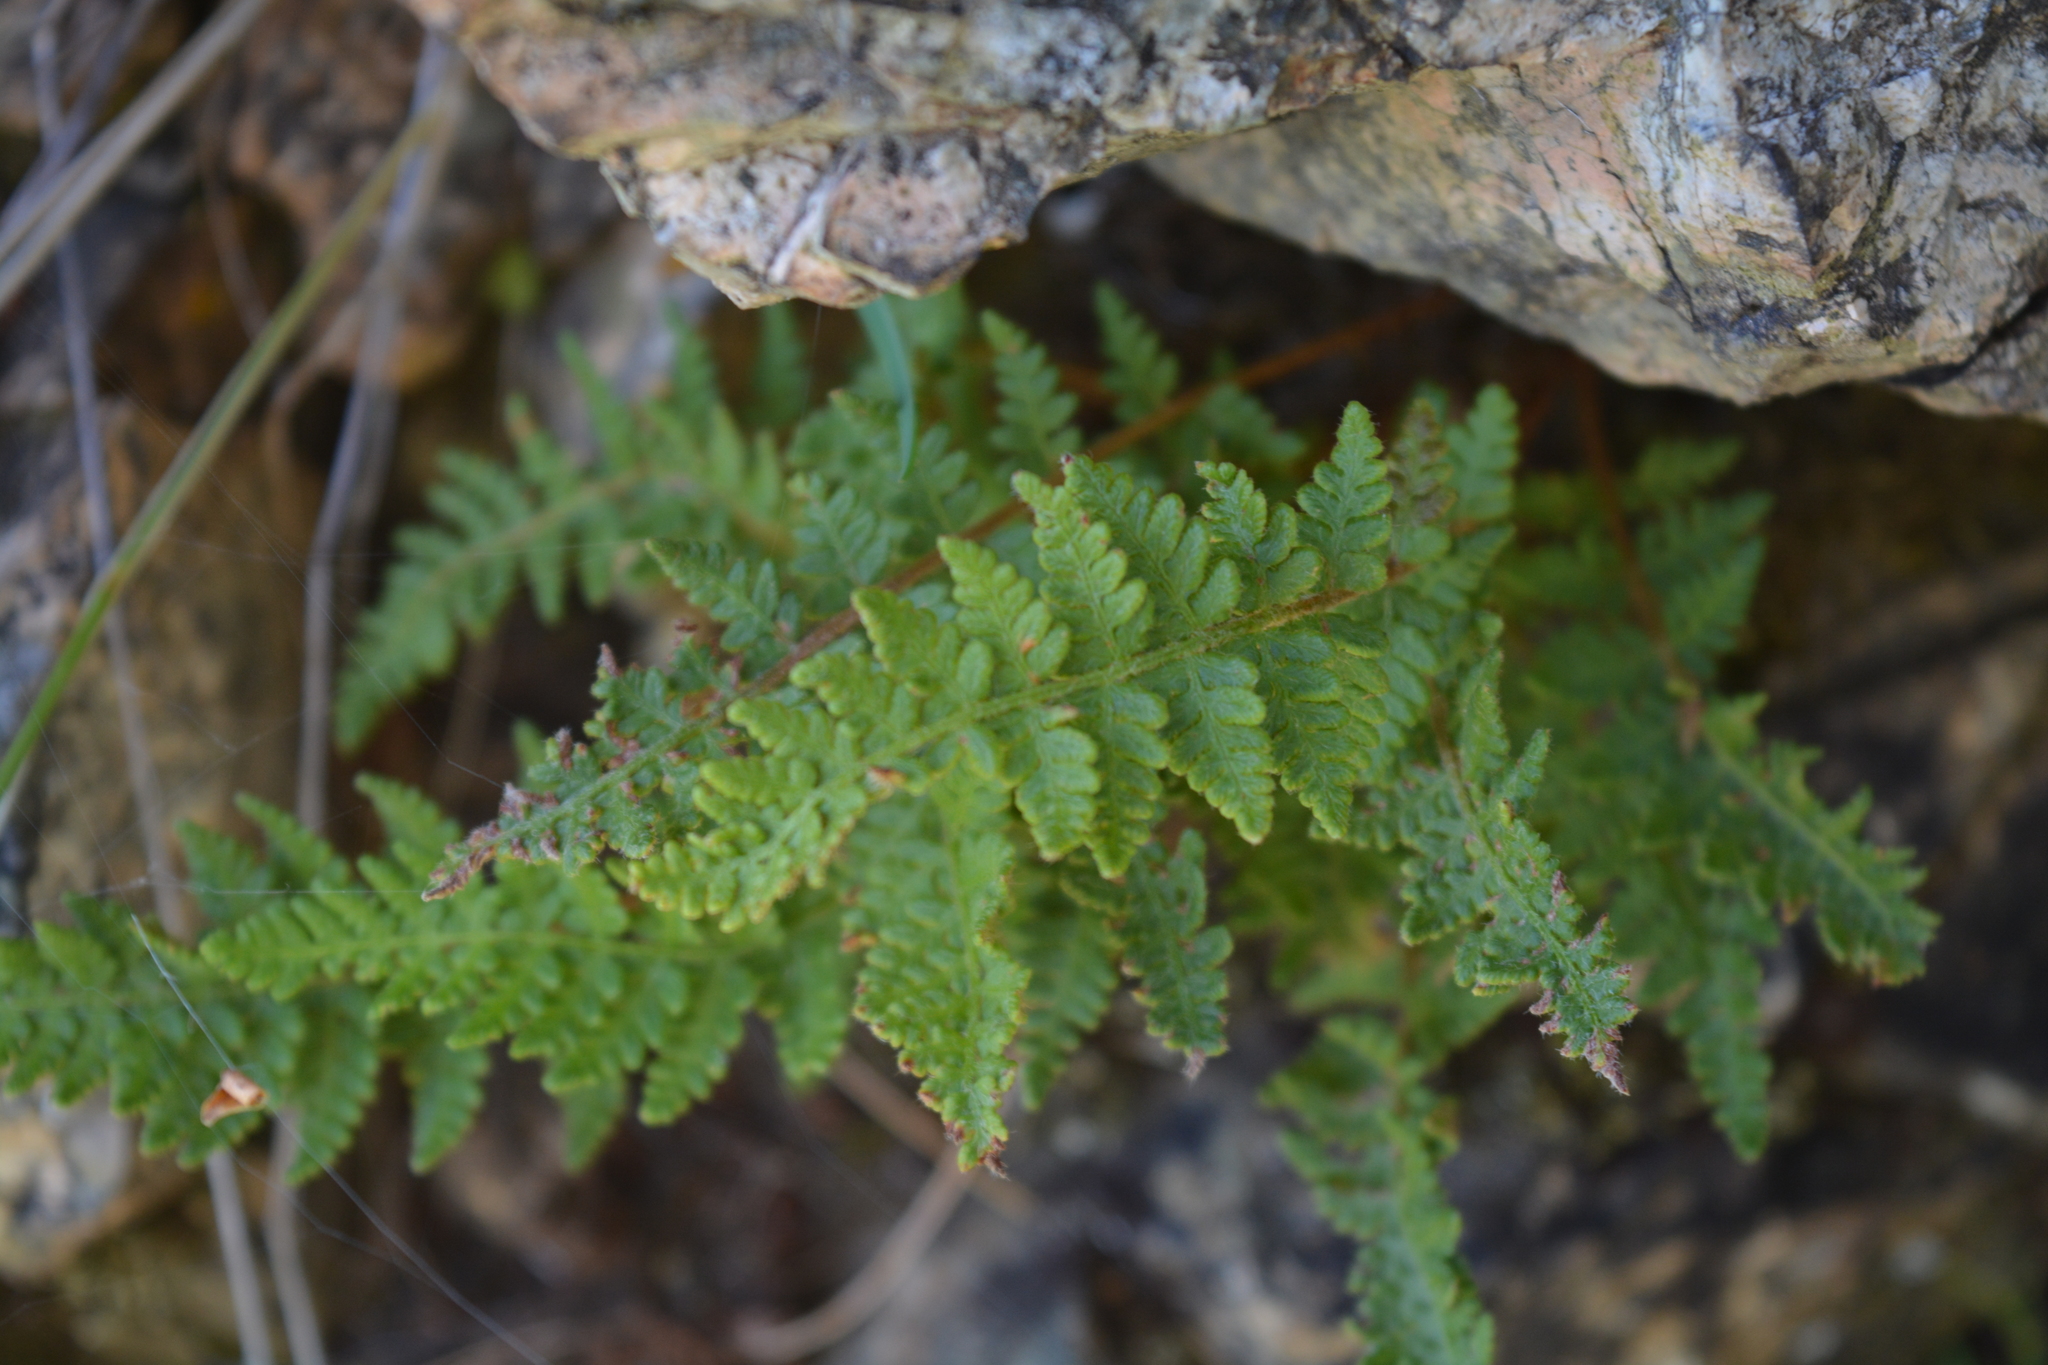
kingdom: Plantae
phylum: Tracheophyta
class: Polypodiopsida
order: Polypodiales
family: Woodsiaceae
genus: Woodsia
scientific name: Woodsia ilvensis
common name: Fragrant woodsia
